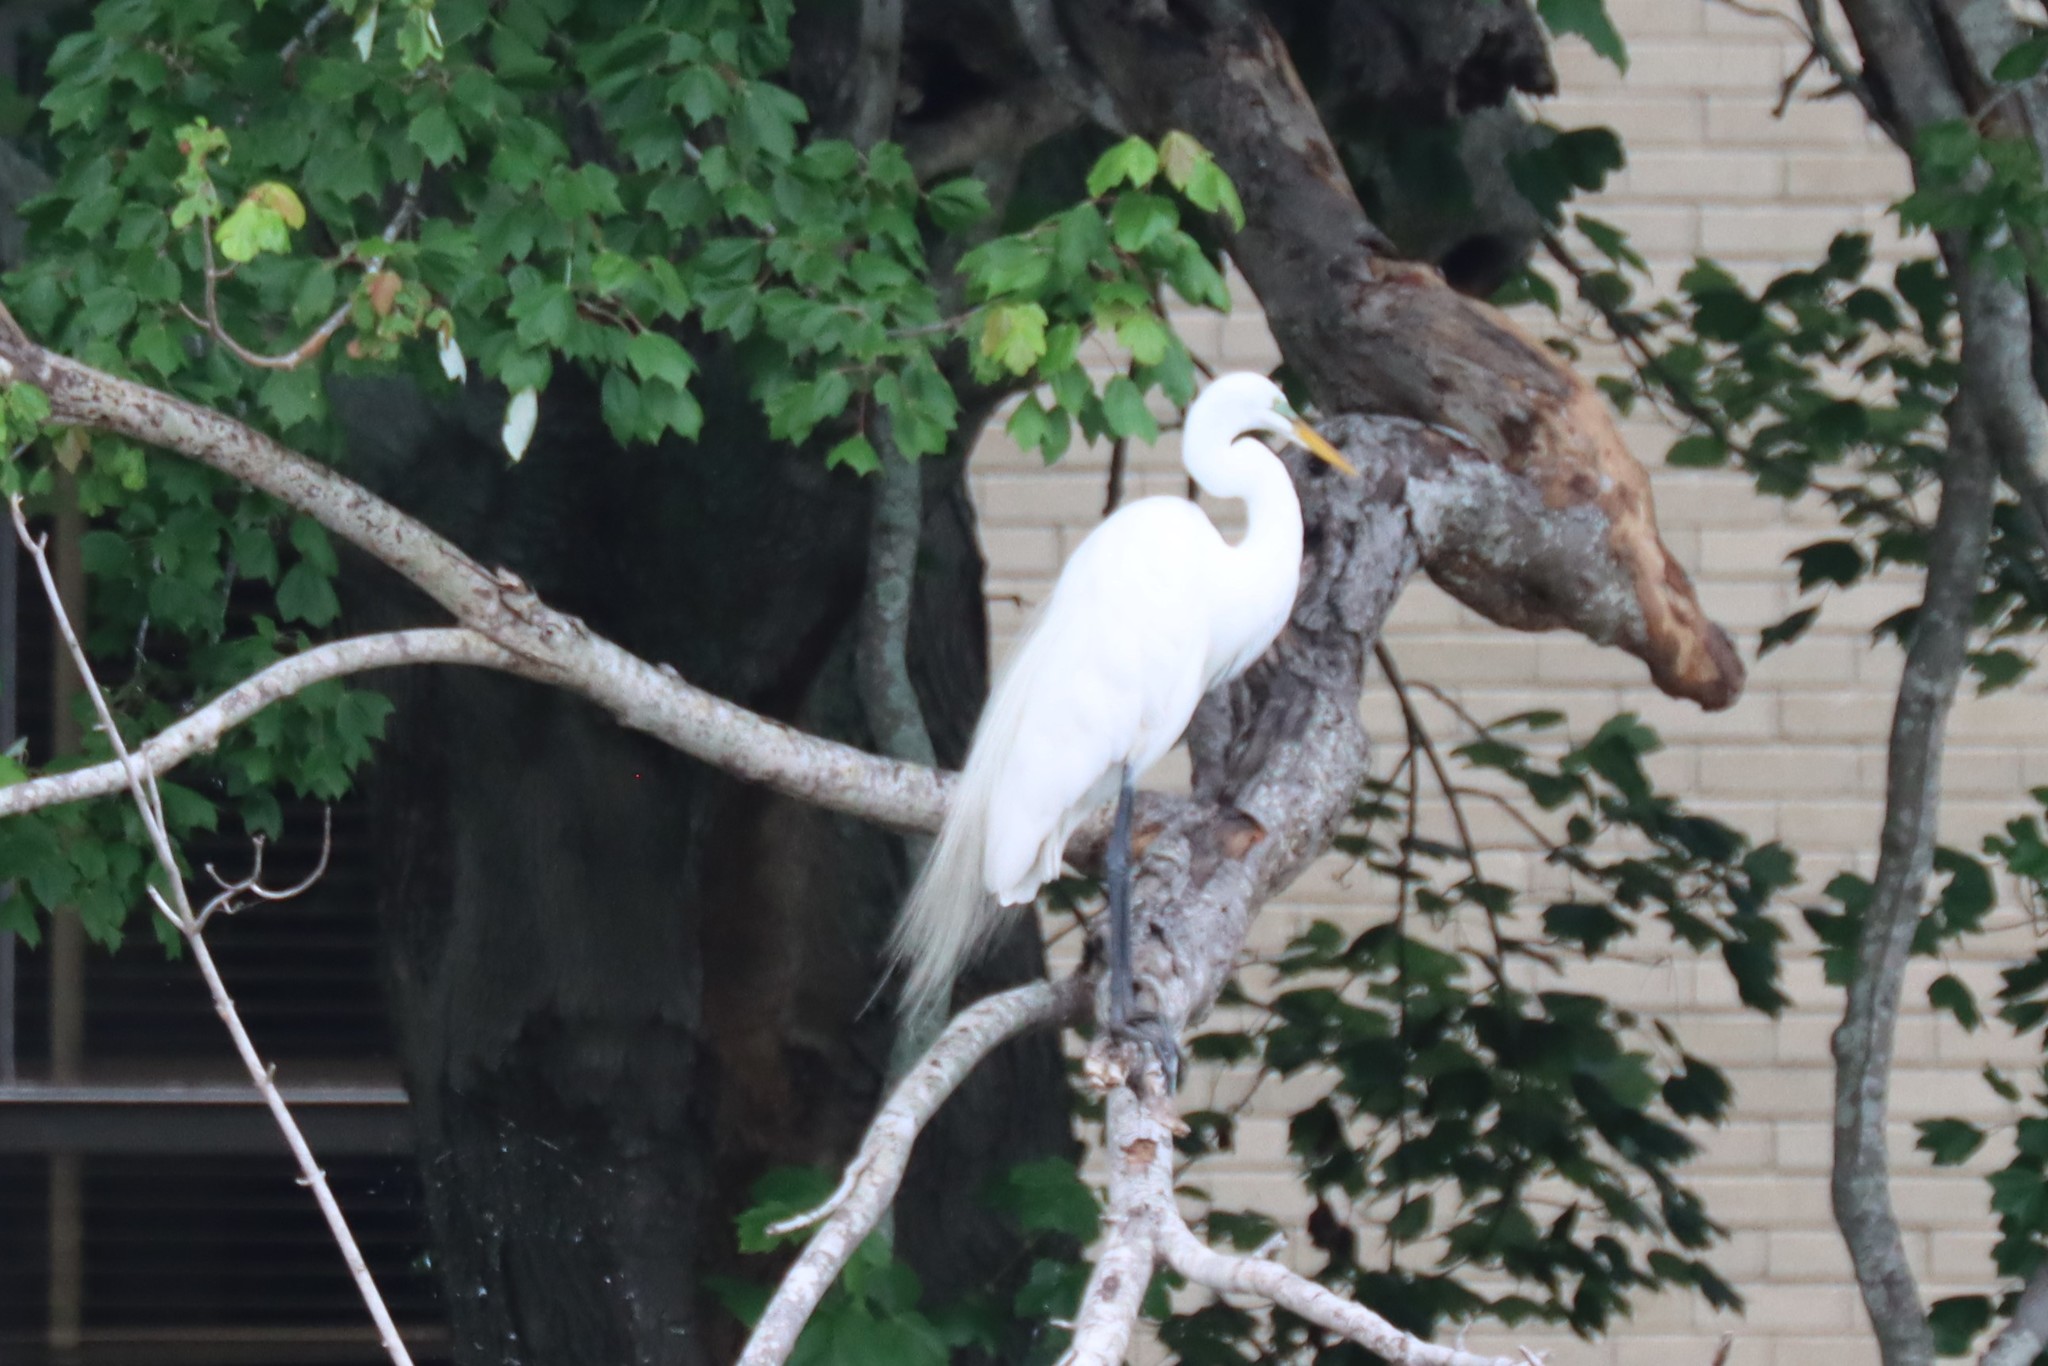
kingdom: Animalia
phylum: Chordata
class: Aves
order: Pelecaniformes
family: Ardeidae
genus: Ardea
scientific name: Ardea alba
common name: Great egret
